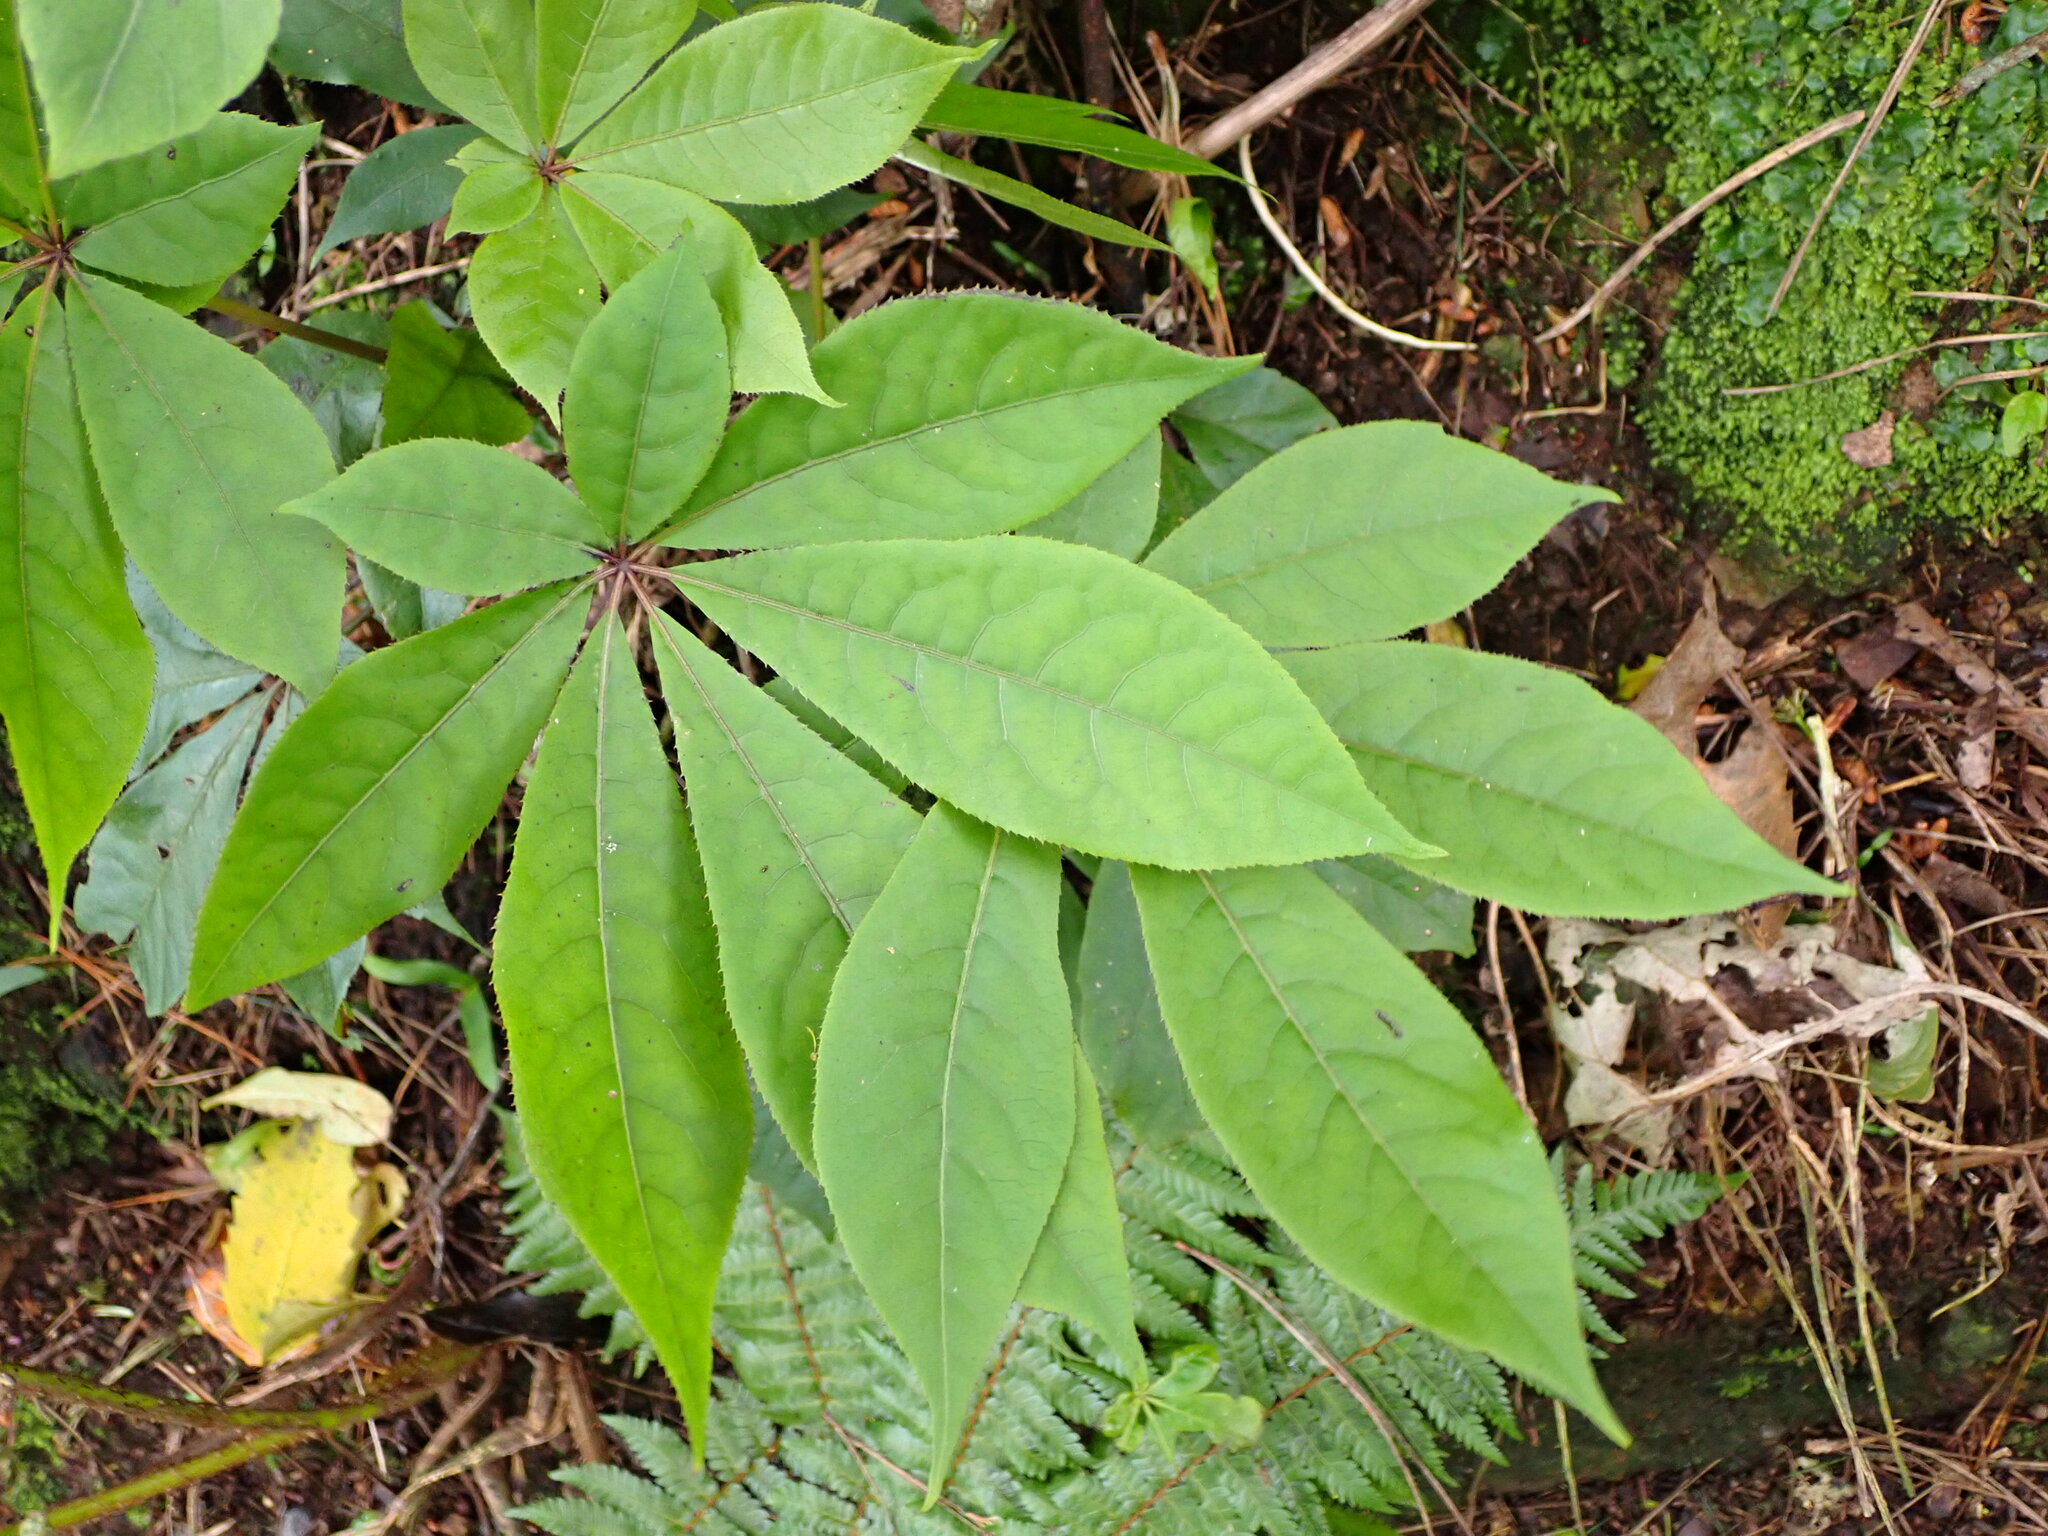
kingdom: Plantae
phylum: Tracheophyta
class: Magnoliopsida
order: Apiales
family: Araliaceae
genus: Schefflera
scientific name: Schefflera digitata
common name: Pate
